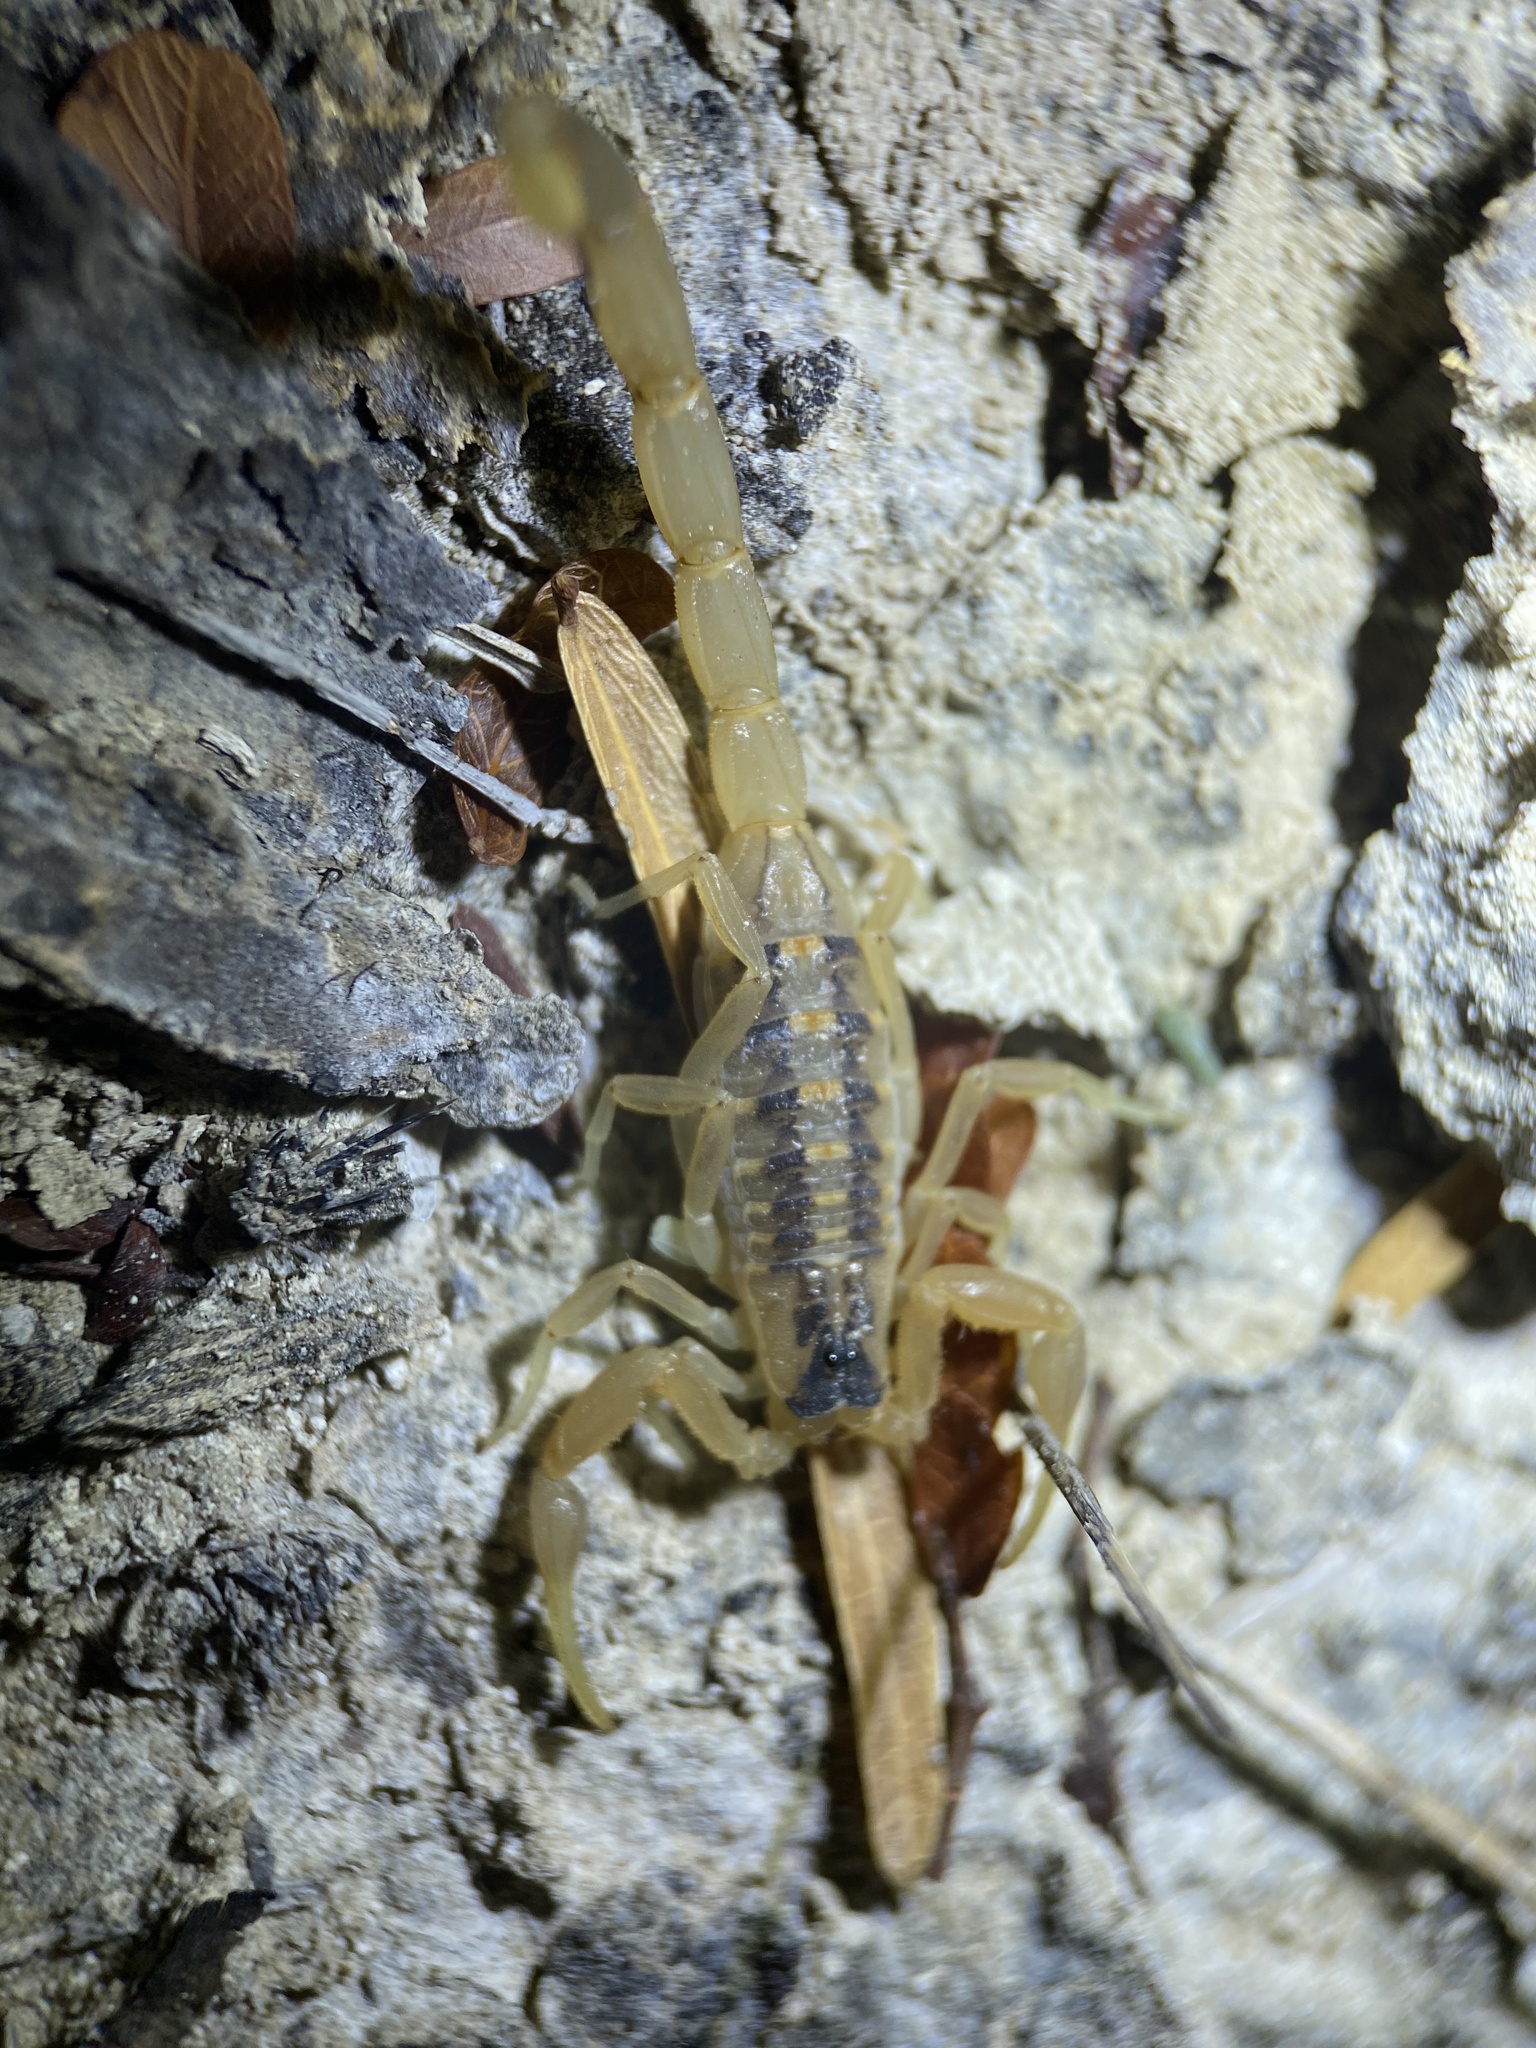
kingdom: Animalia
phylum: Arthropoda
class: Arachnida
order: Scorpiones
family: Buthidae
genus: Centruroides
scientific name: Centruroides vittatus
